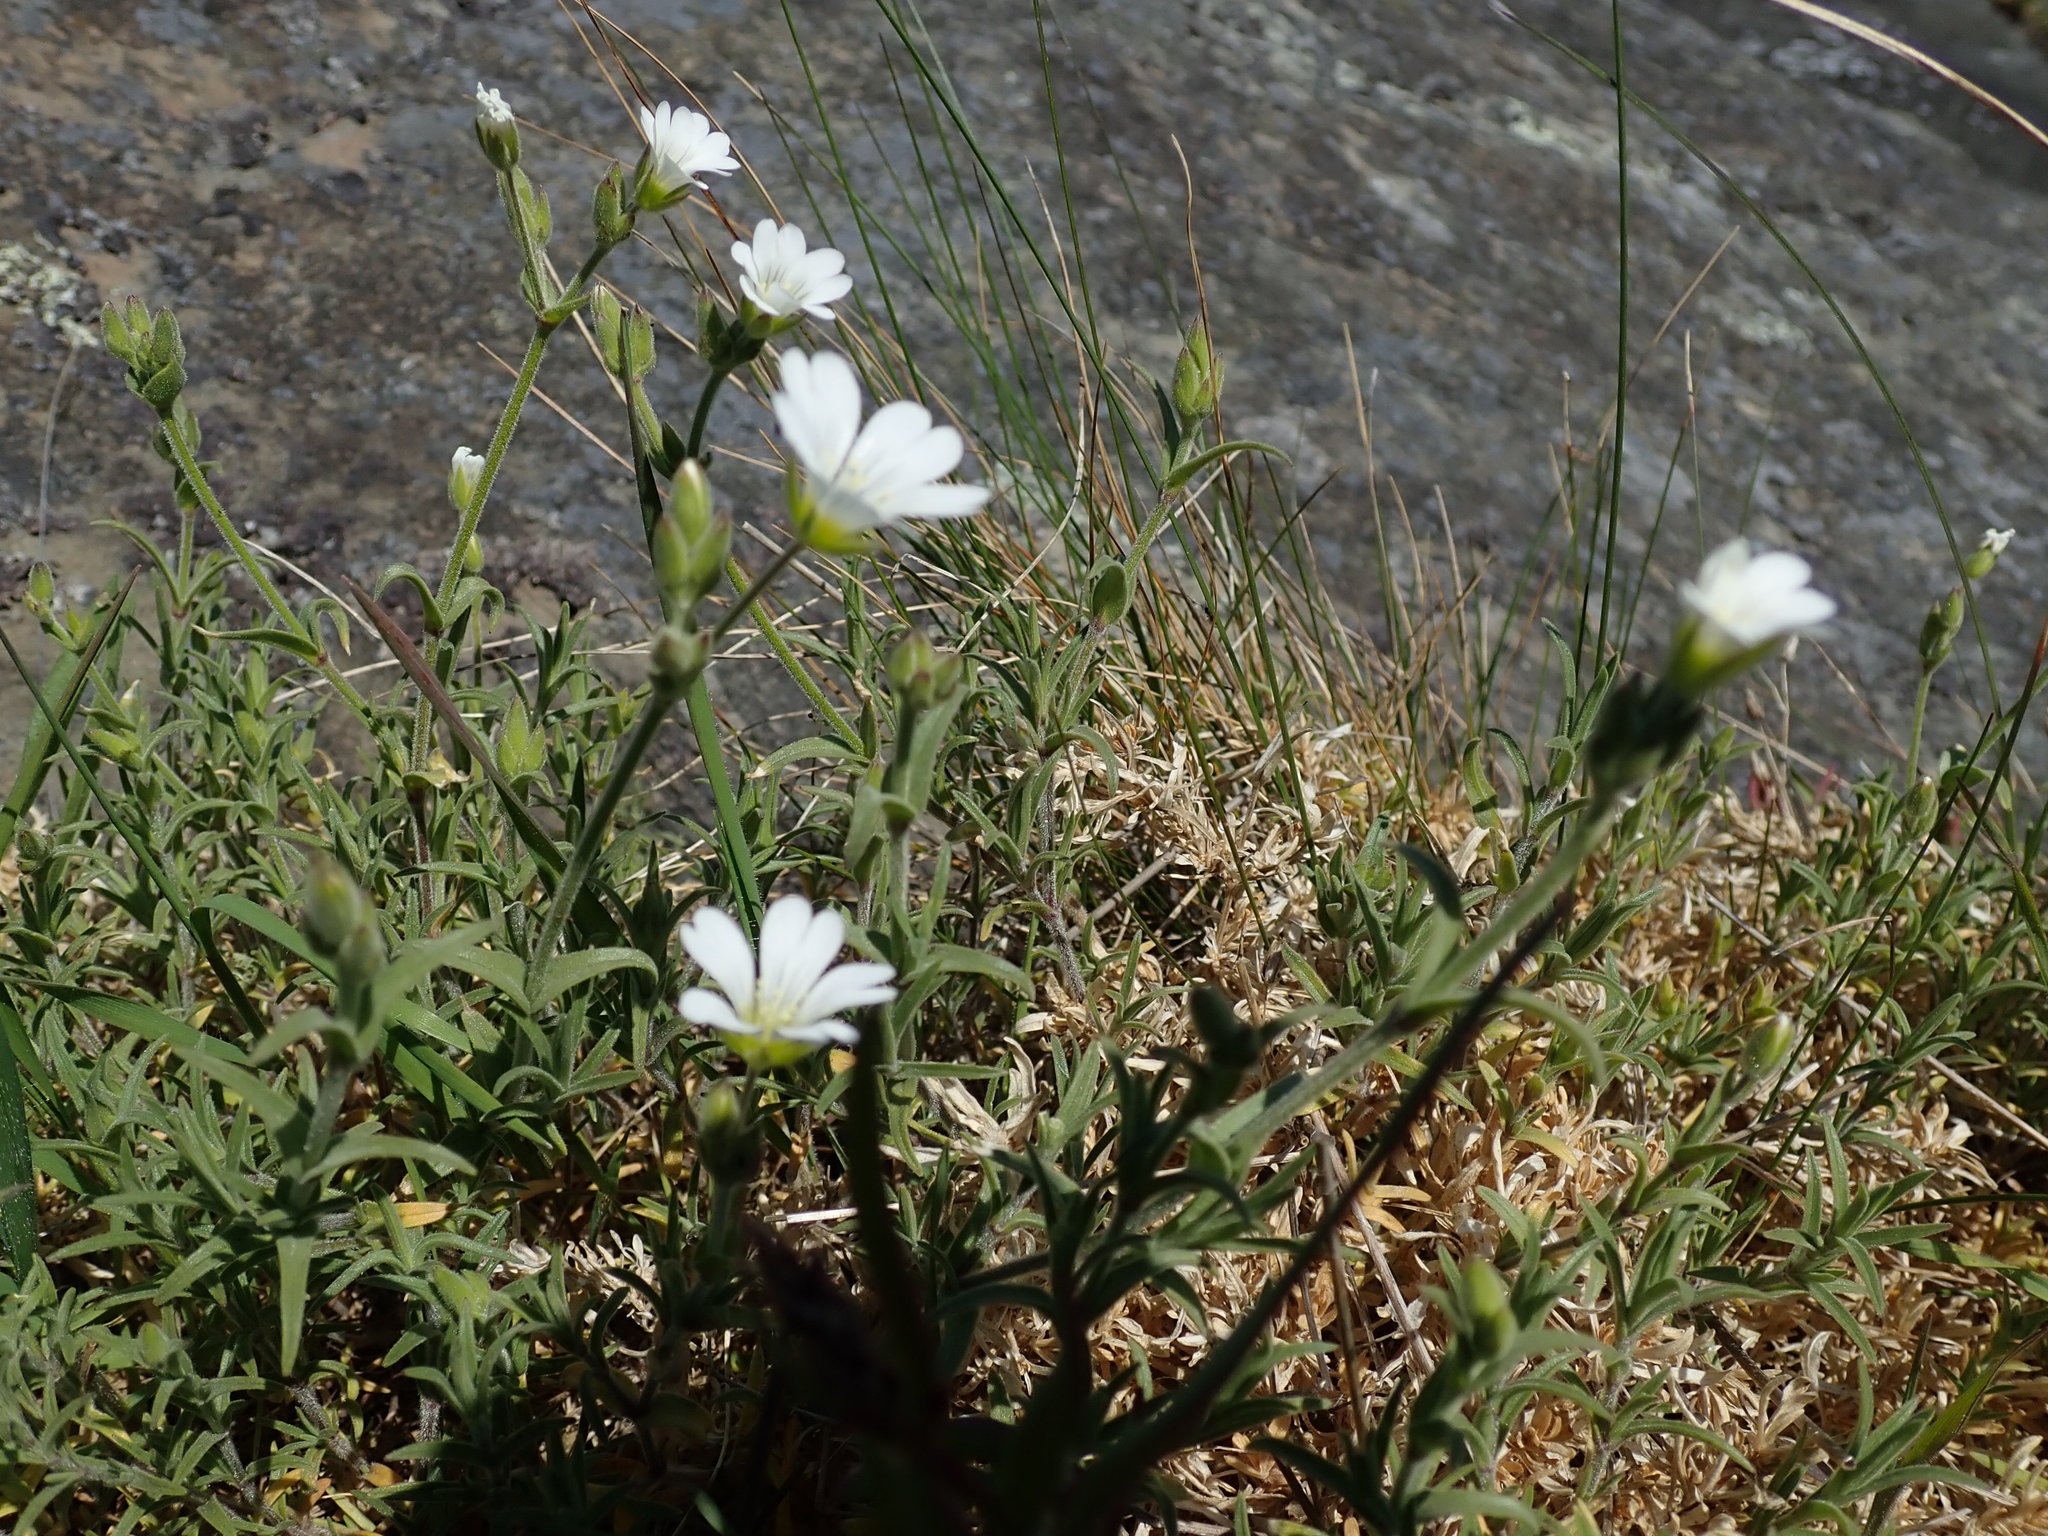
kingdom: Plantae
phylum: Tracheophyta
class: Magnoliopsida
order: Caryophyllales
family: Caryophyllaceae
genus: Cerastium
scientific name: Cerastium arvense
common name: Field mouse-ear
